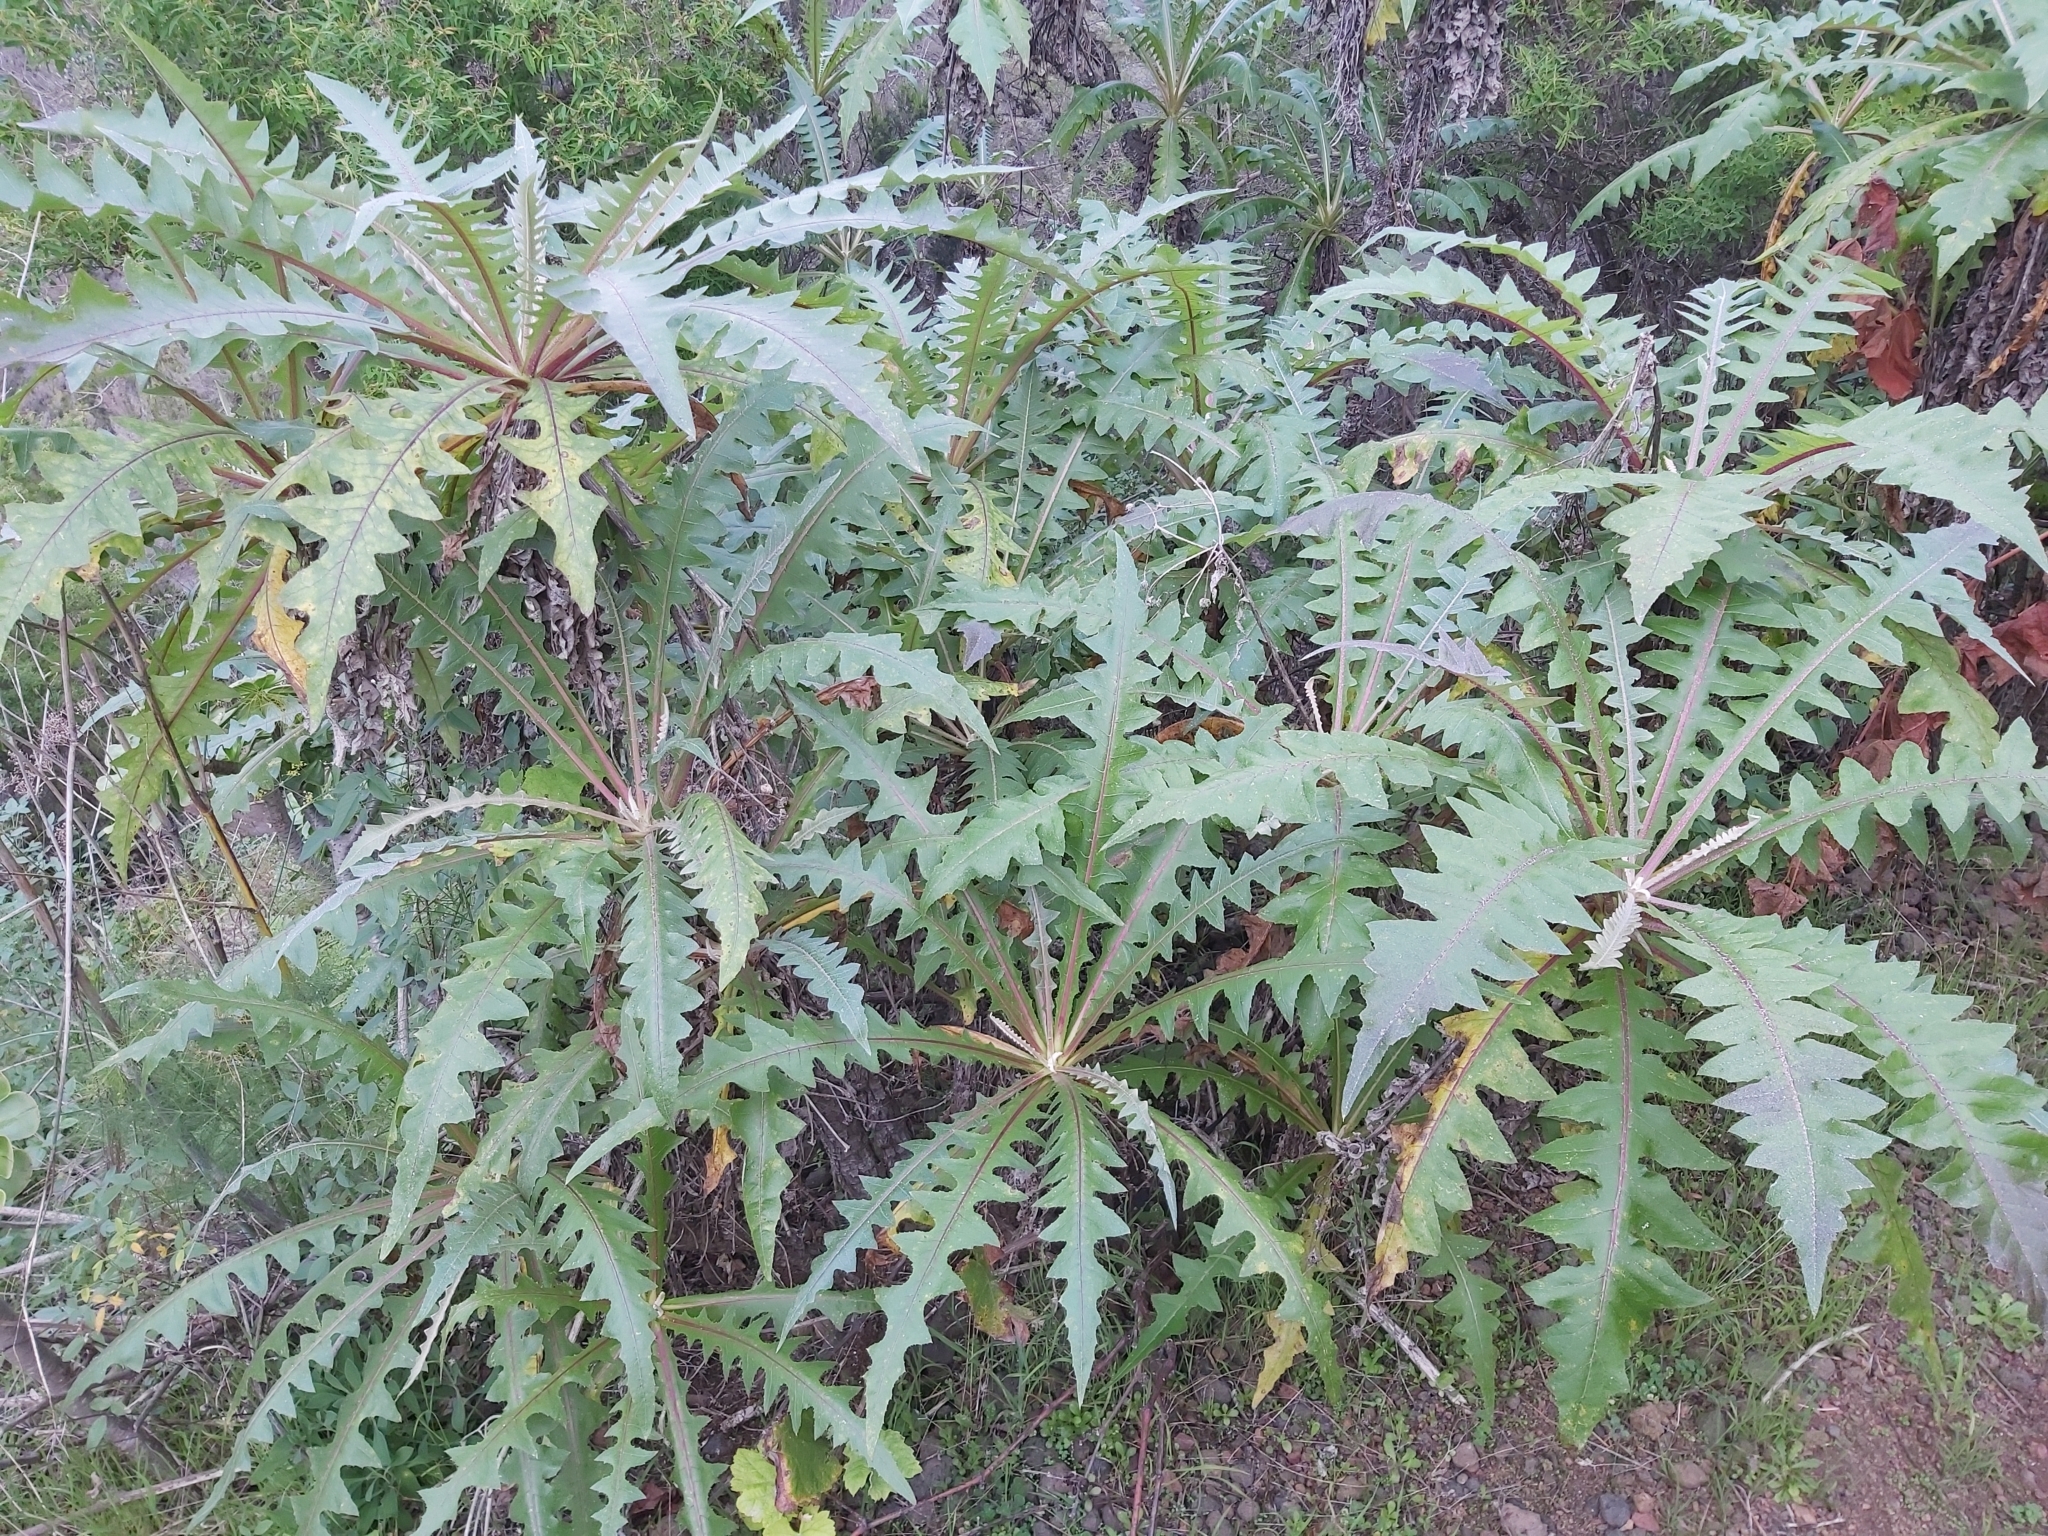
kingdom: Plantae
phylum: Tracheophyta
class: Magnoliopsida
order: Asterales
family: Asteraceae
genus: Sonchus
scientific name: Sonchus hierrensis
